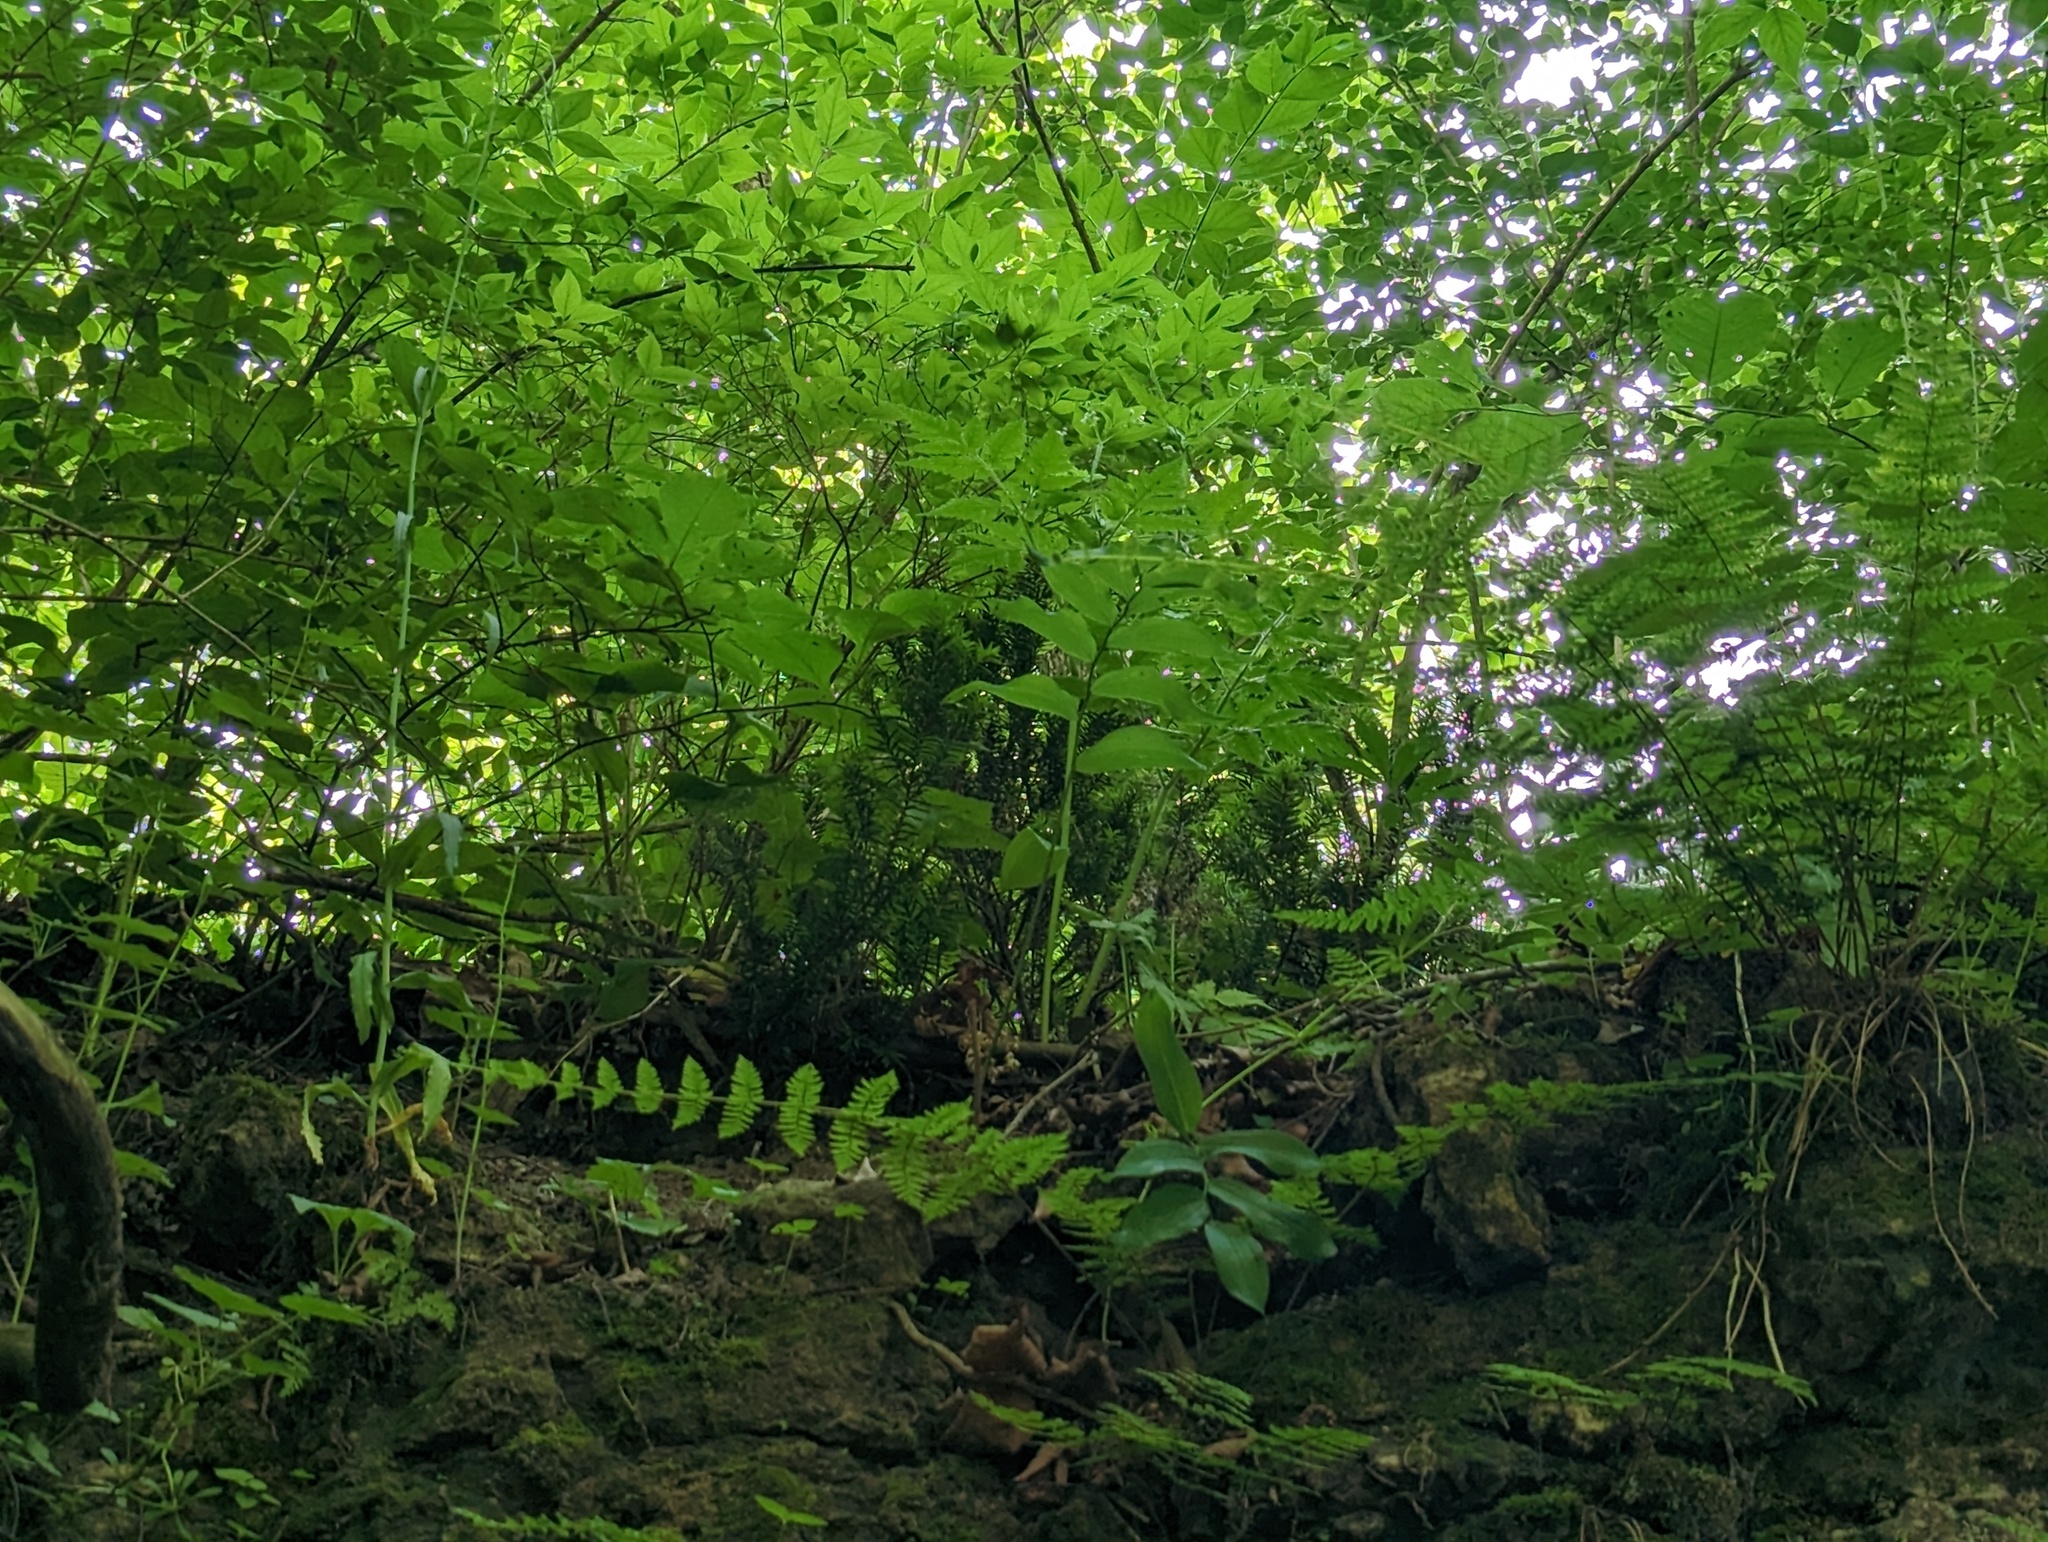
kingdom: Plantae
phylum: Tracheophyta
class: Pinopsida
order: Pinales
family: Taxaceae
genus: Taxus
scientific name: Taxus canadensis
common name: American yew
